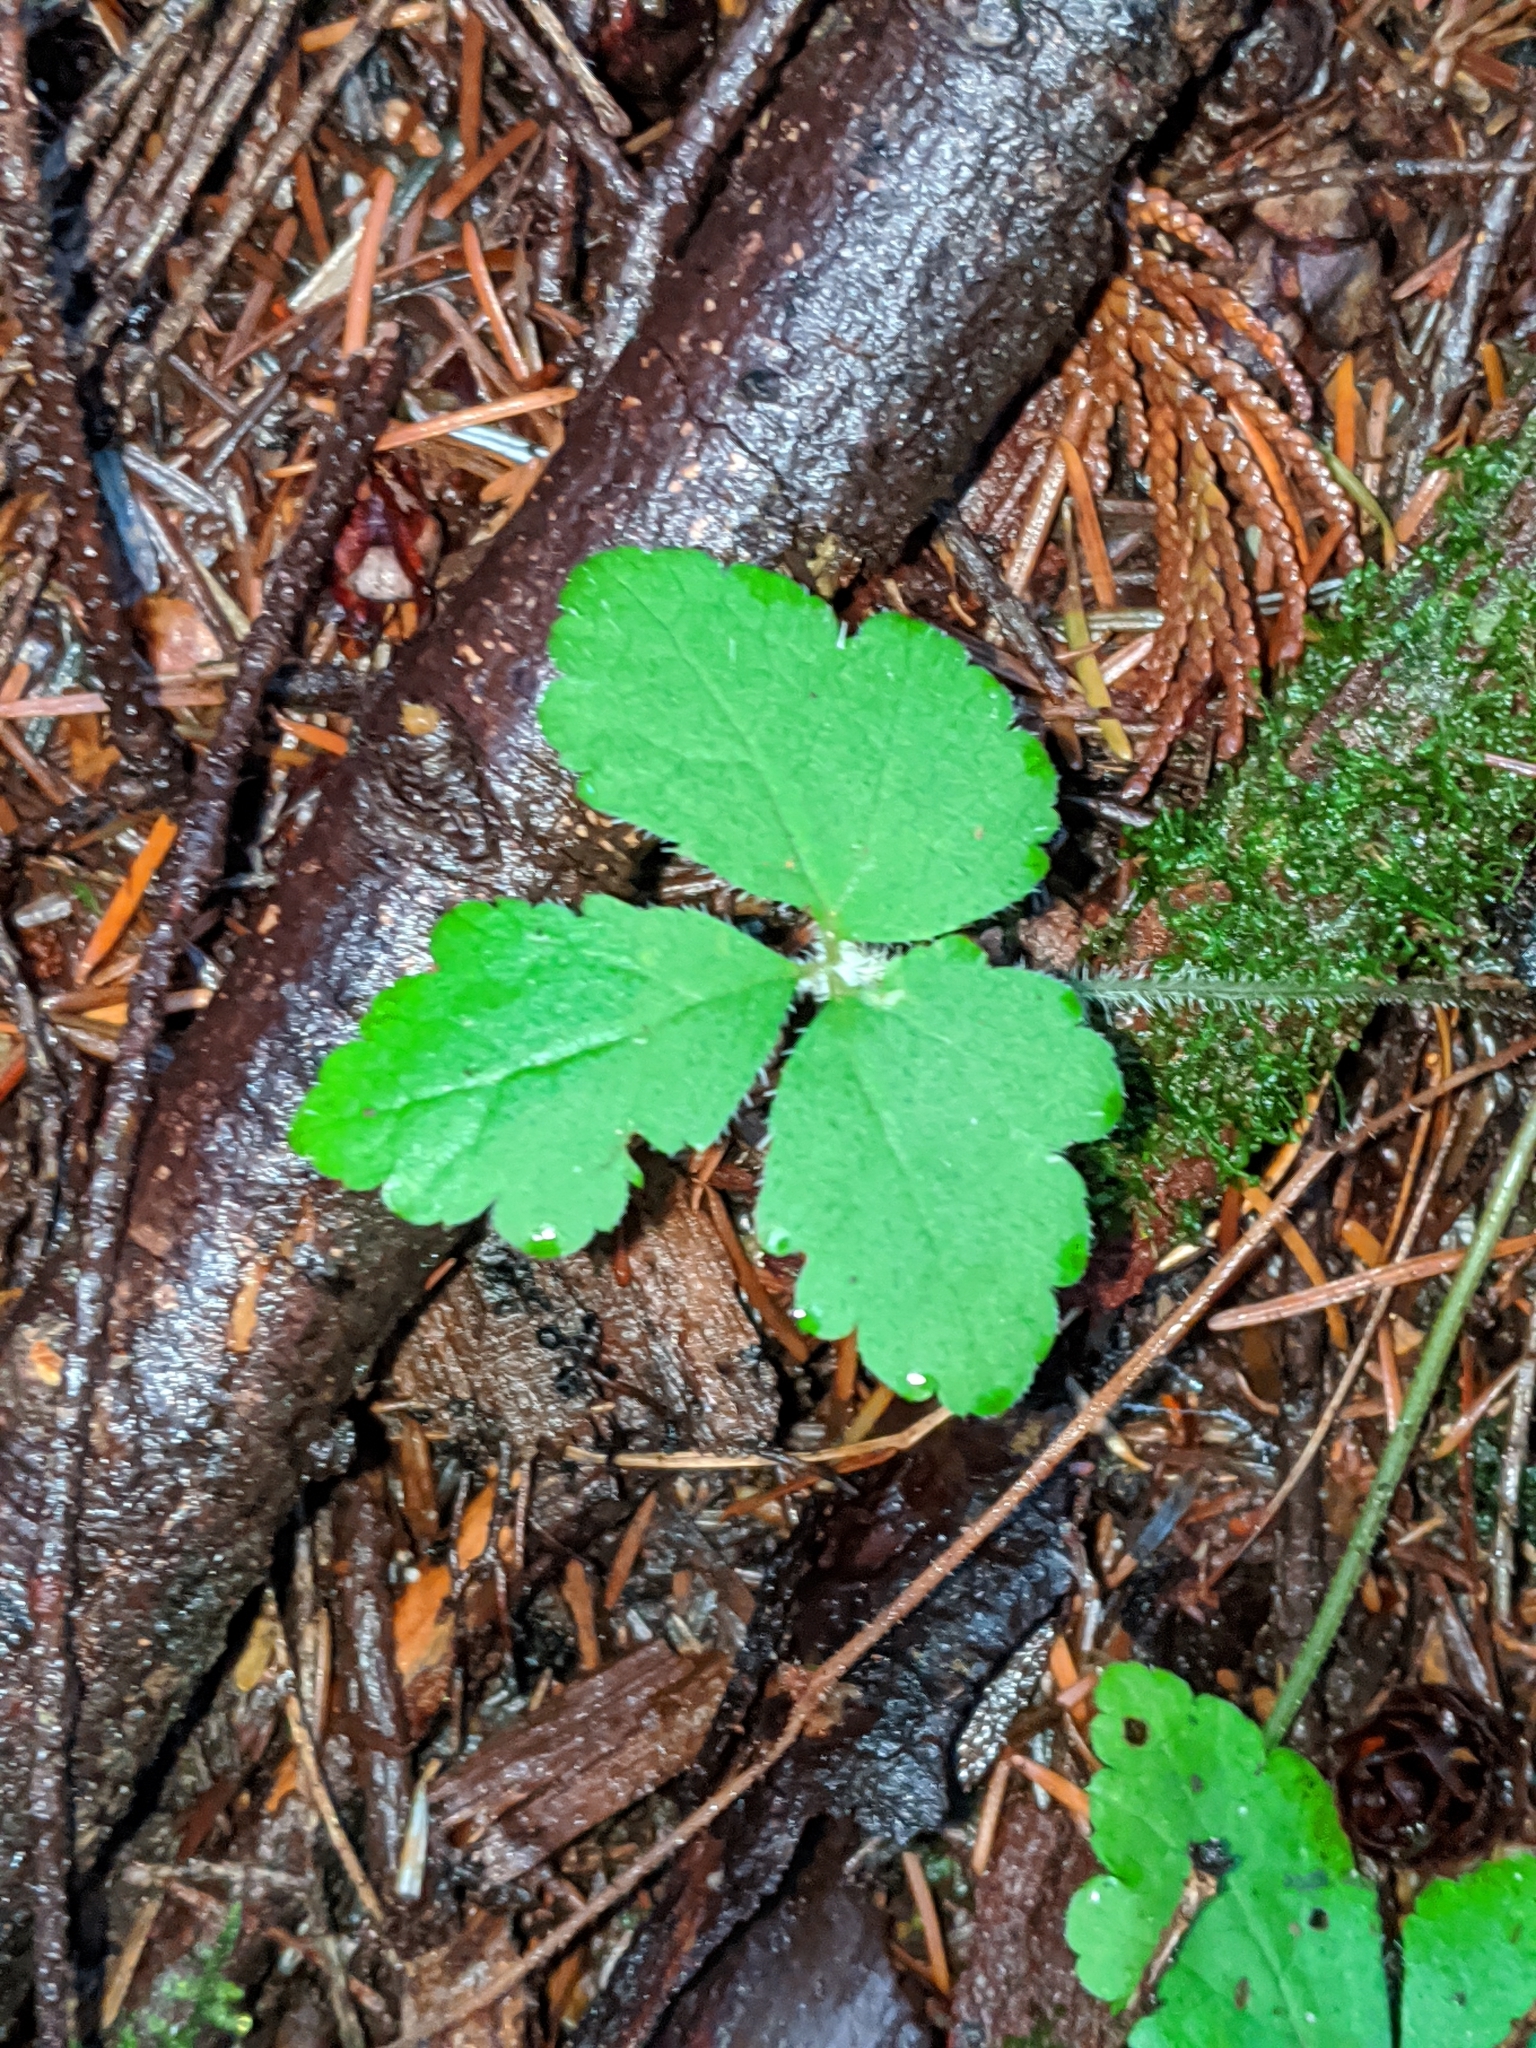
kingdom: Plantae
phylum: Tracheophyta
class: Magnoliopsida
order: Saxifragales
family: Saxifragaceae
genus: Tiarella
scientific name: Tiarella trifoliata
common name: Sugar-scoop
